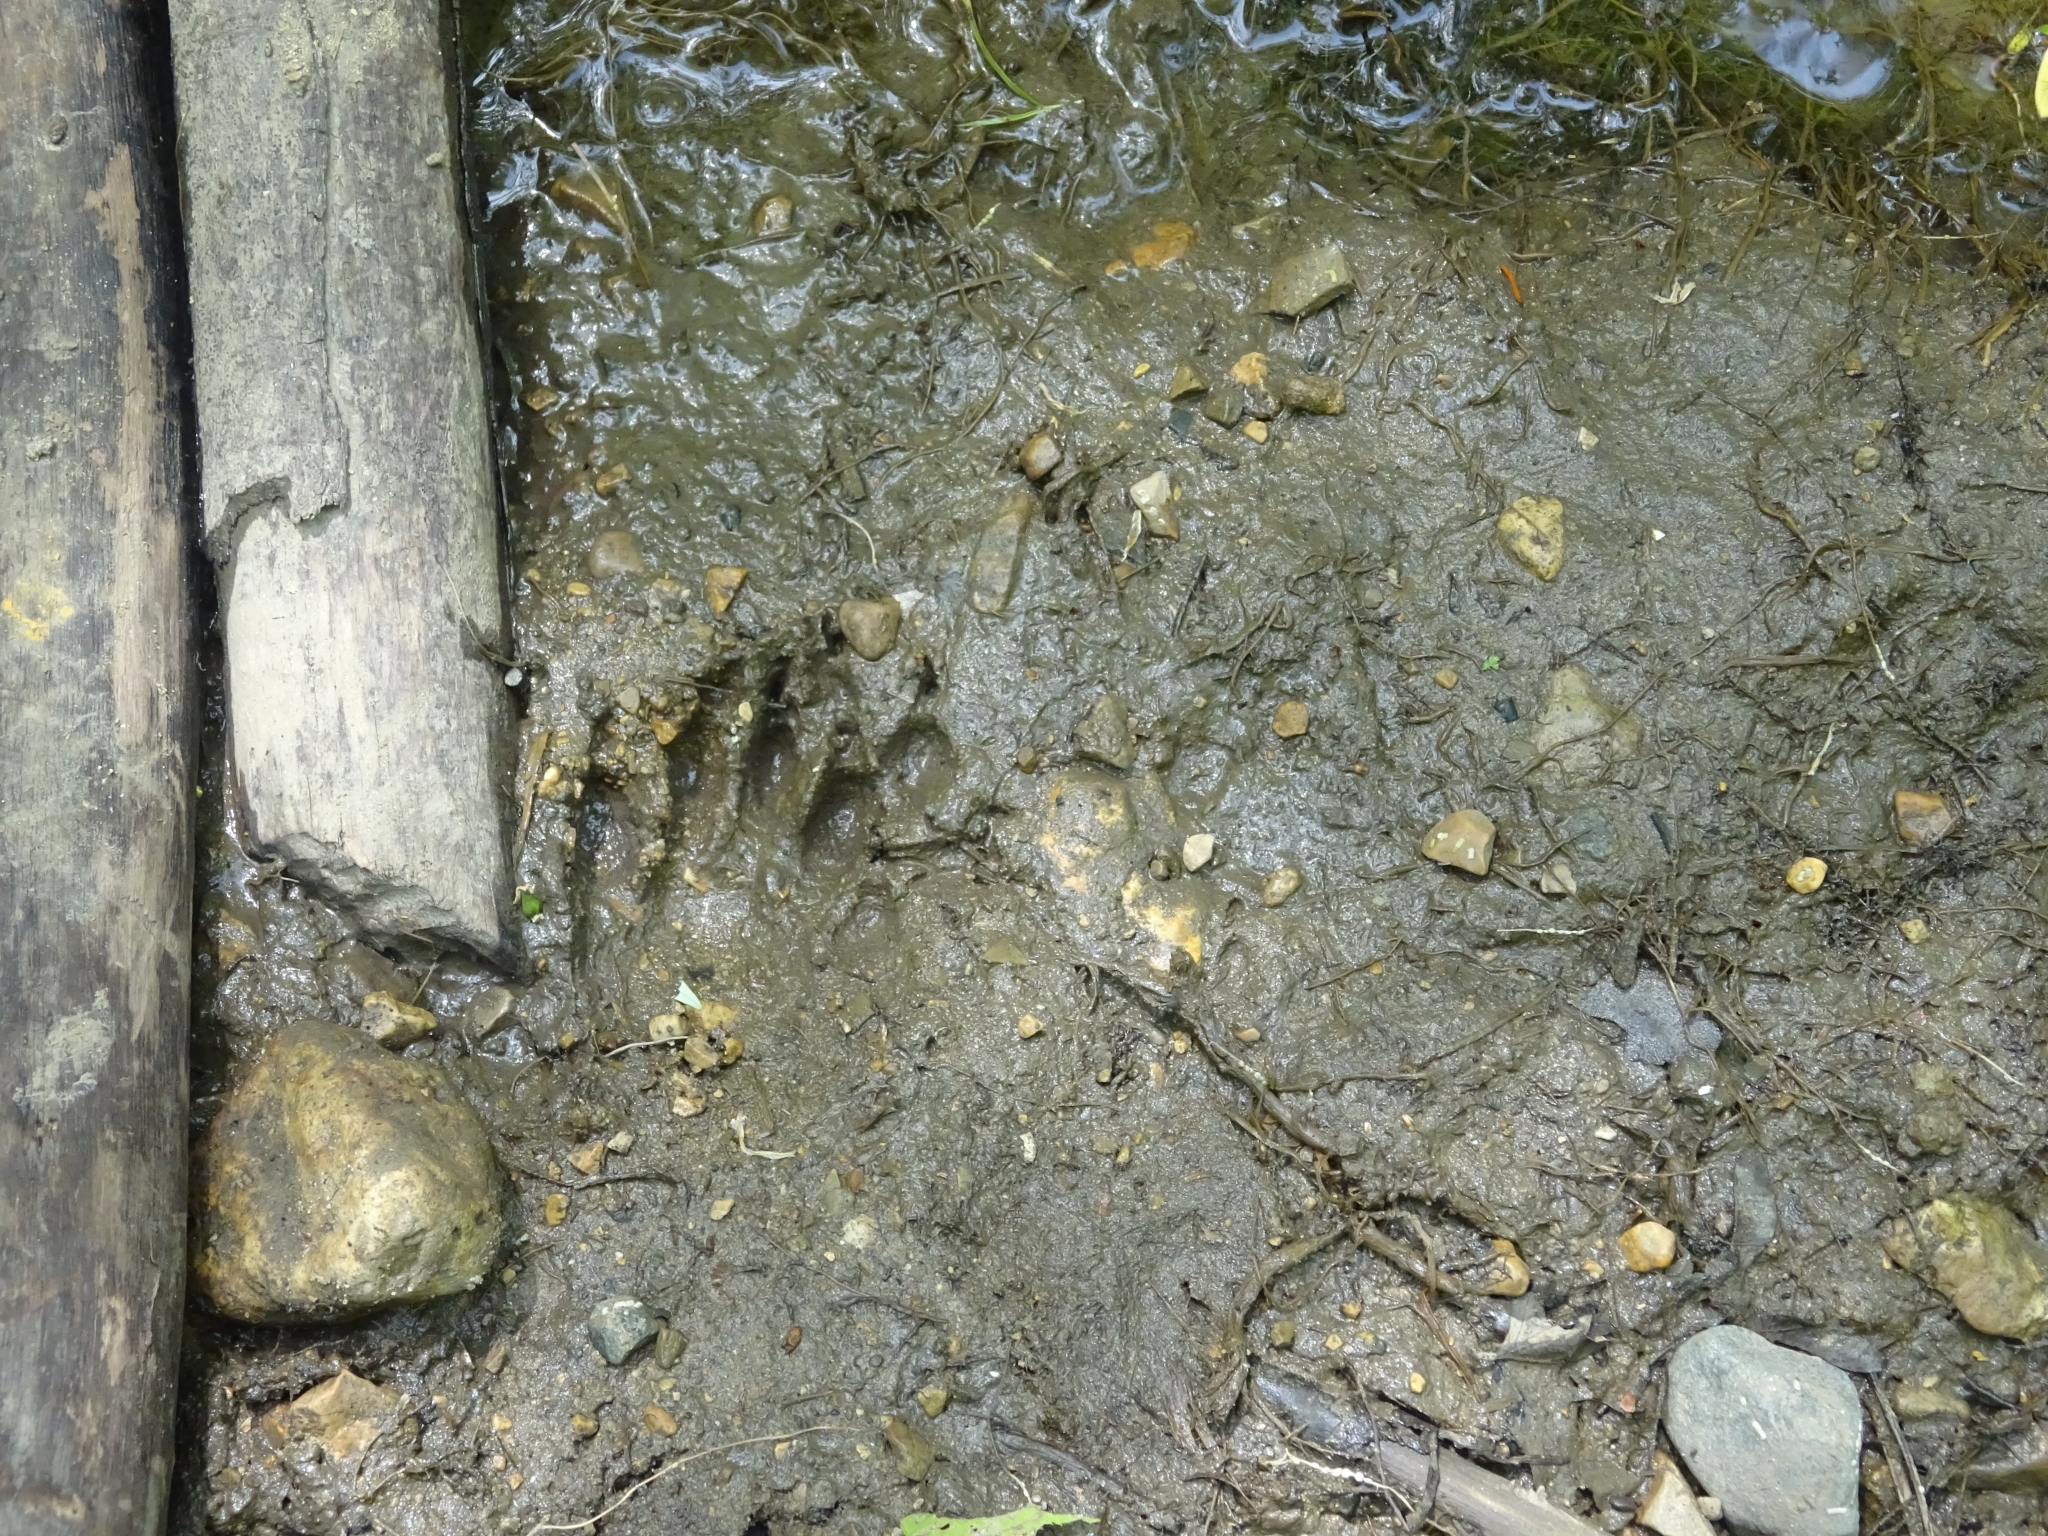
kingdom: Animalia
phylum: Chordata
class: Mammalia
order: Carnivora
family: Procyonidae
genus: Procyon
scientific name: Procyon lotor
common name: Raccoon
